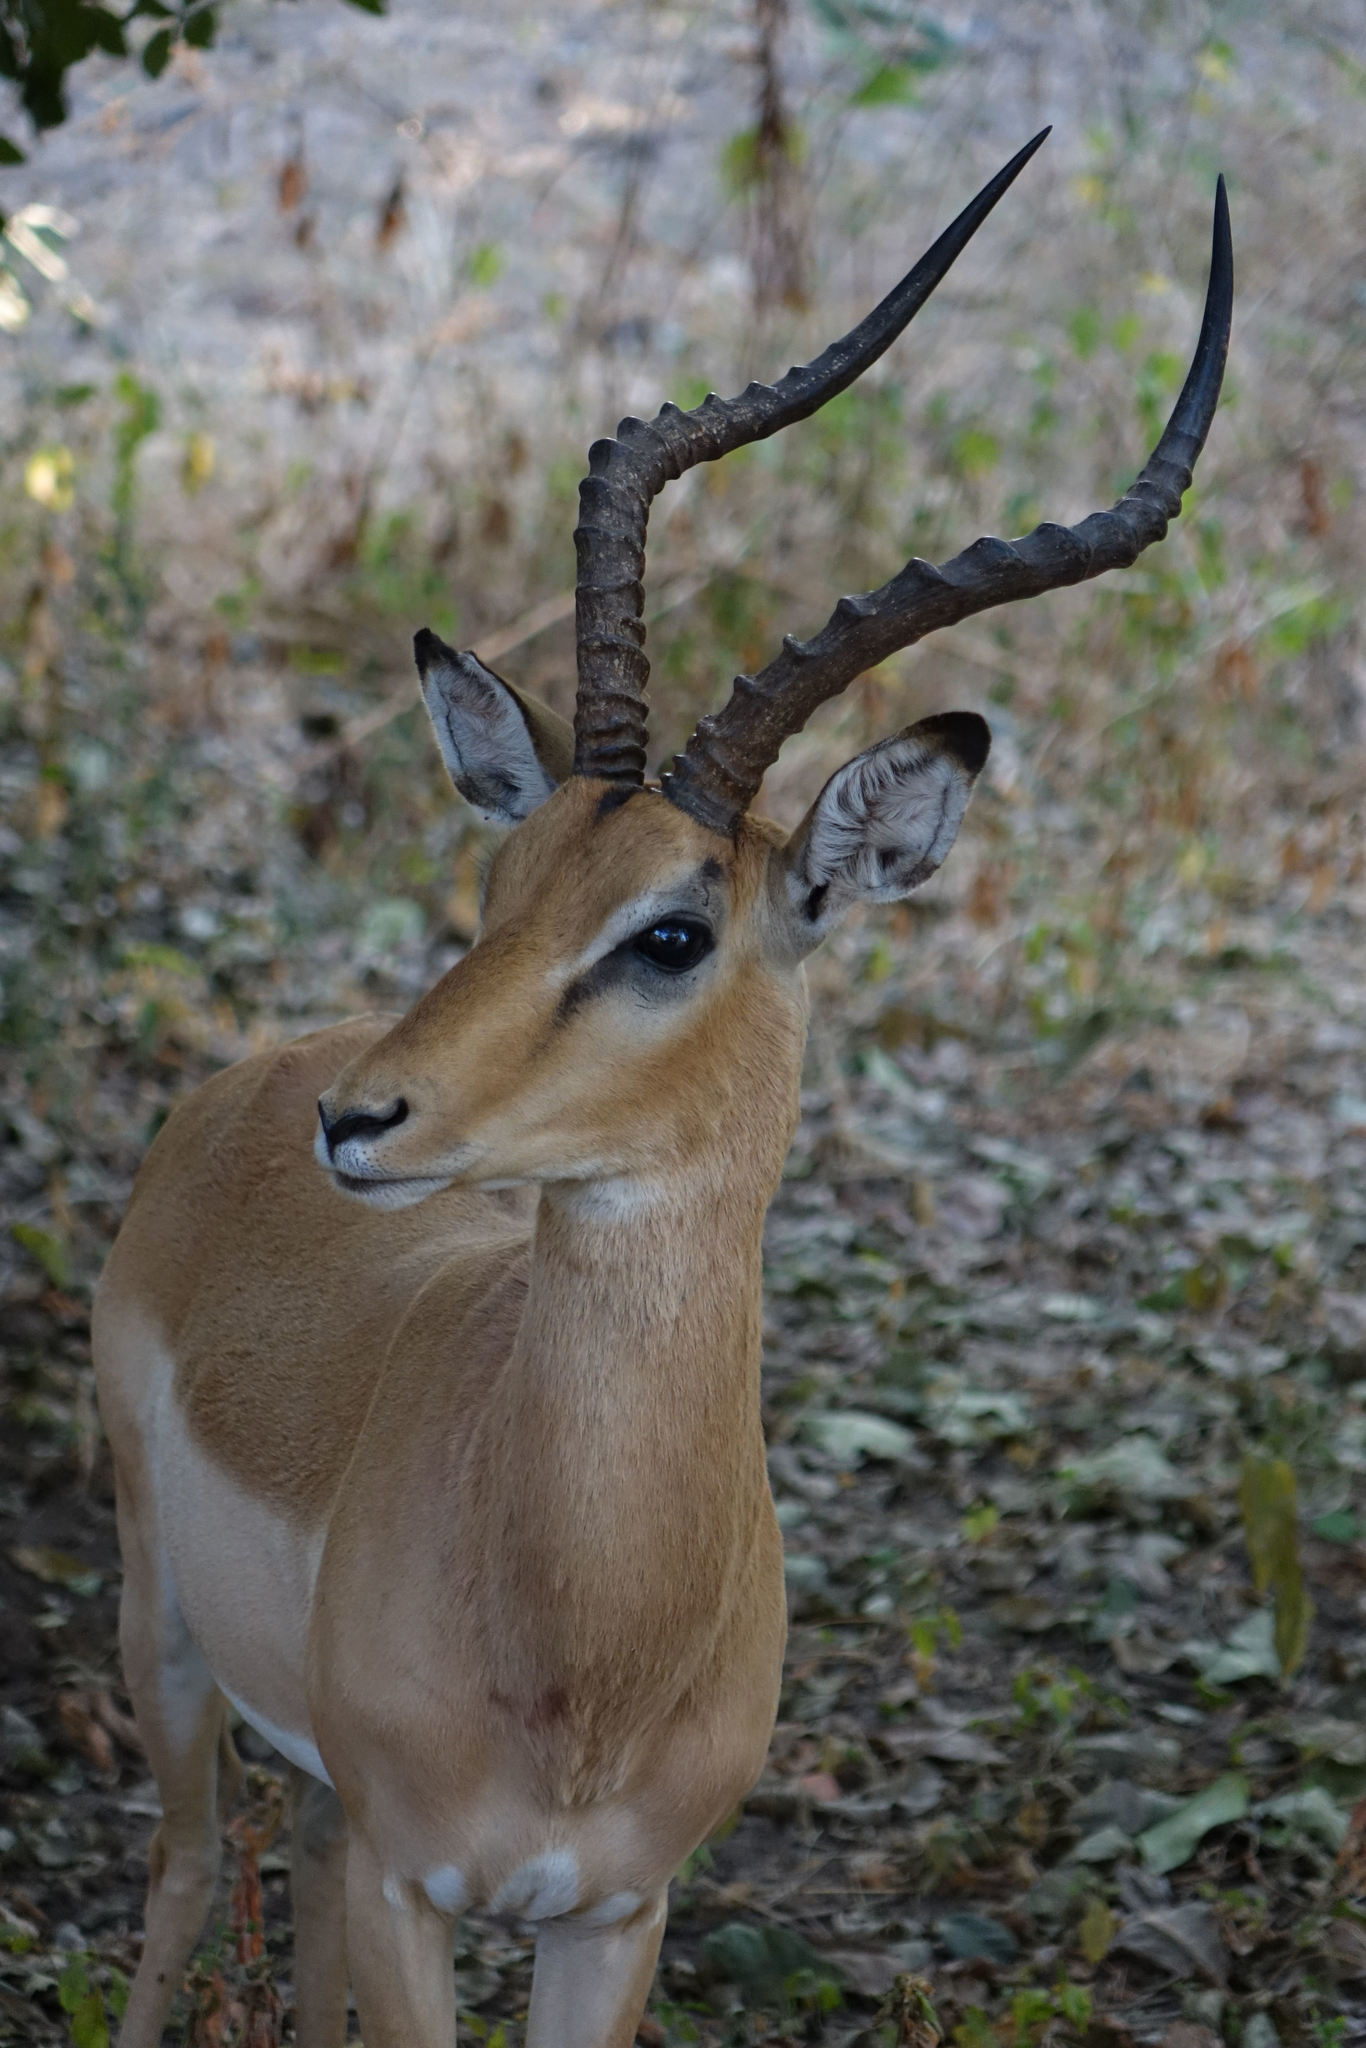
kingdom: Animalia
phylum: Chordata
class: Mammalia
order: Artiodactyla
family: Bovidae
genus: Aepyceros
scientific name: Aepyceros melampus
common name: Impala
